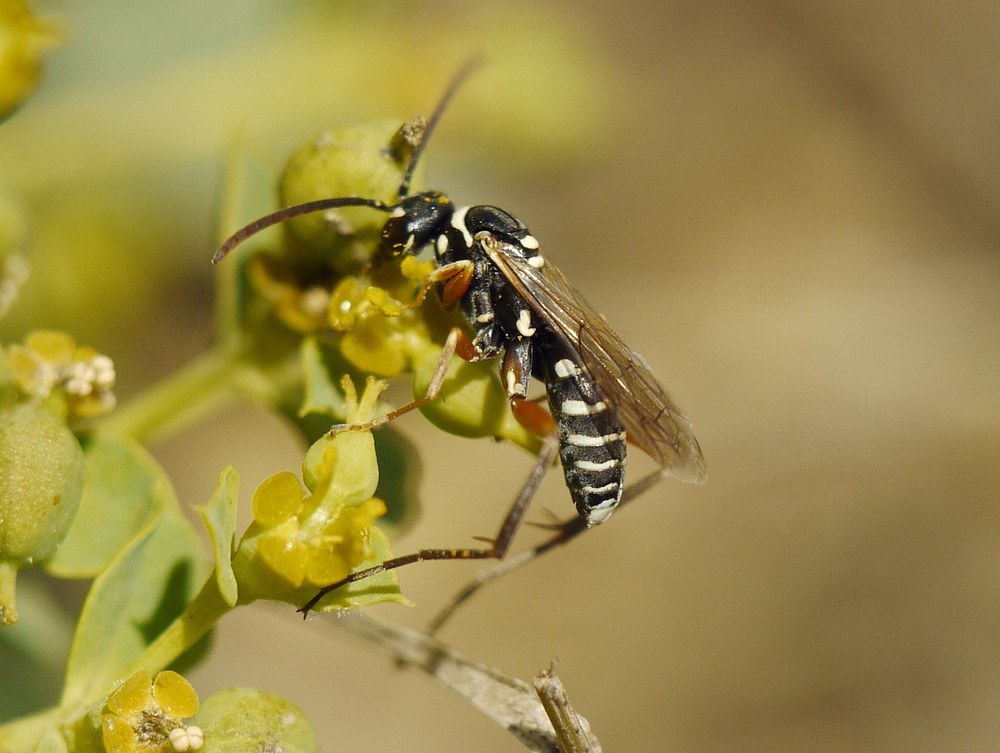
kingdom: Animalia
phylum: Arthropoda
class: Insecta
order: Hymenoptera
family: Pompilidae
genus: Ceropales
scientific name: Ceropales albicincta
